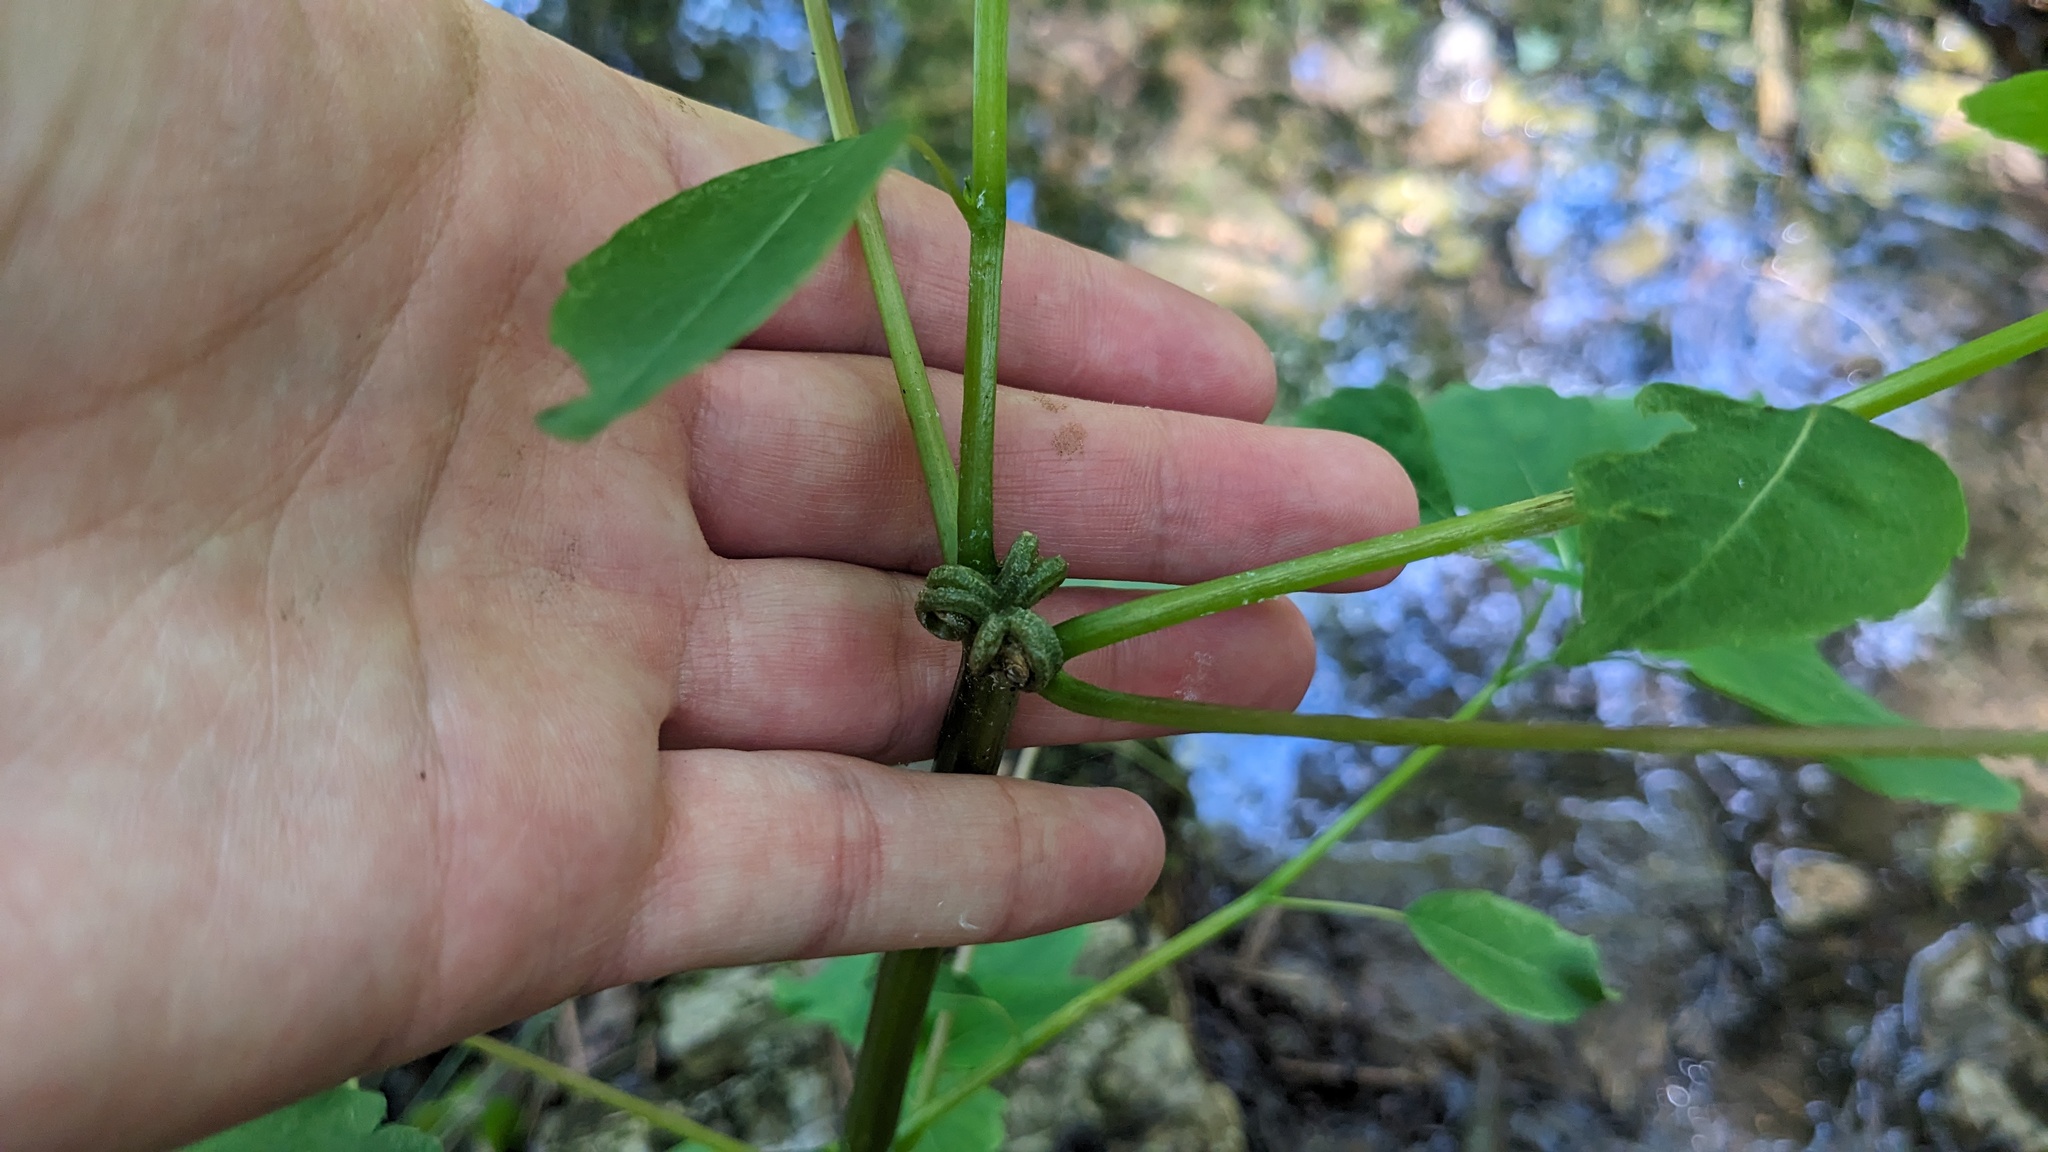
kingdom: Plantae
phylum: Tracheophyta
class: Magnoliopsida
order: Ericales
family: Balsaminaceae
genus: Impatiens
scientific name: Impatiens capensis
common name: Orange balsam
